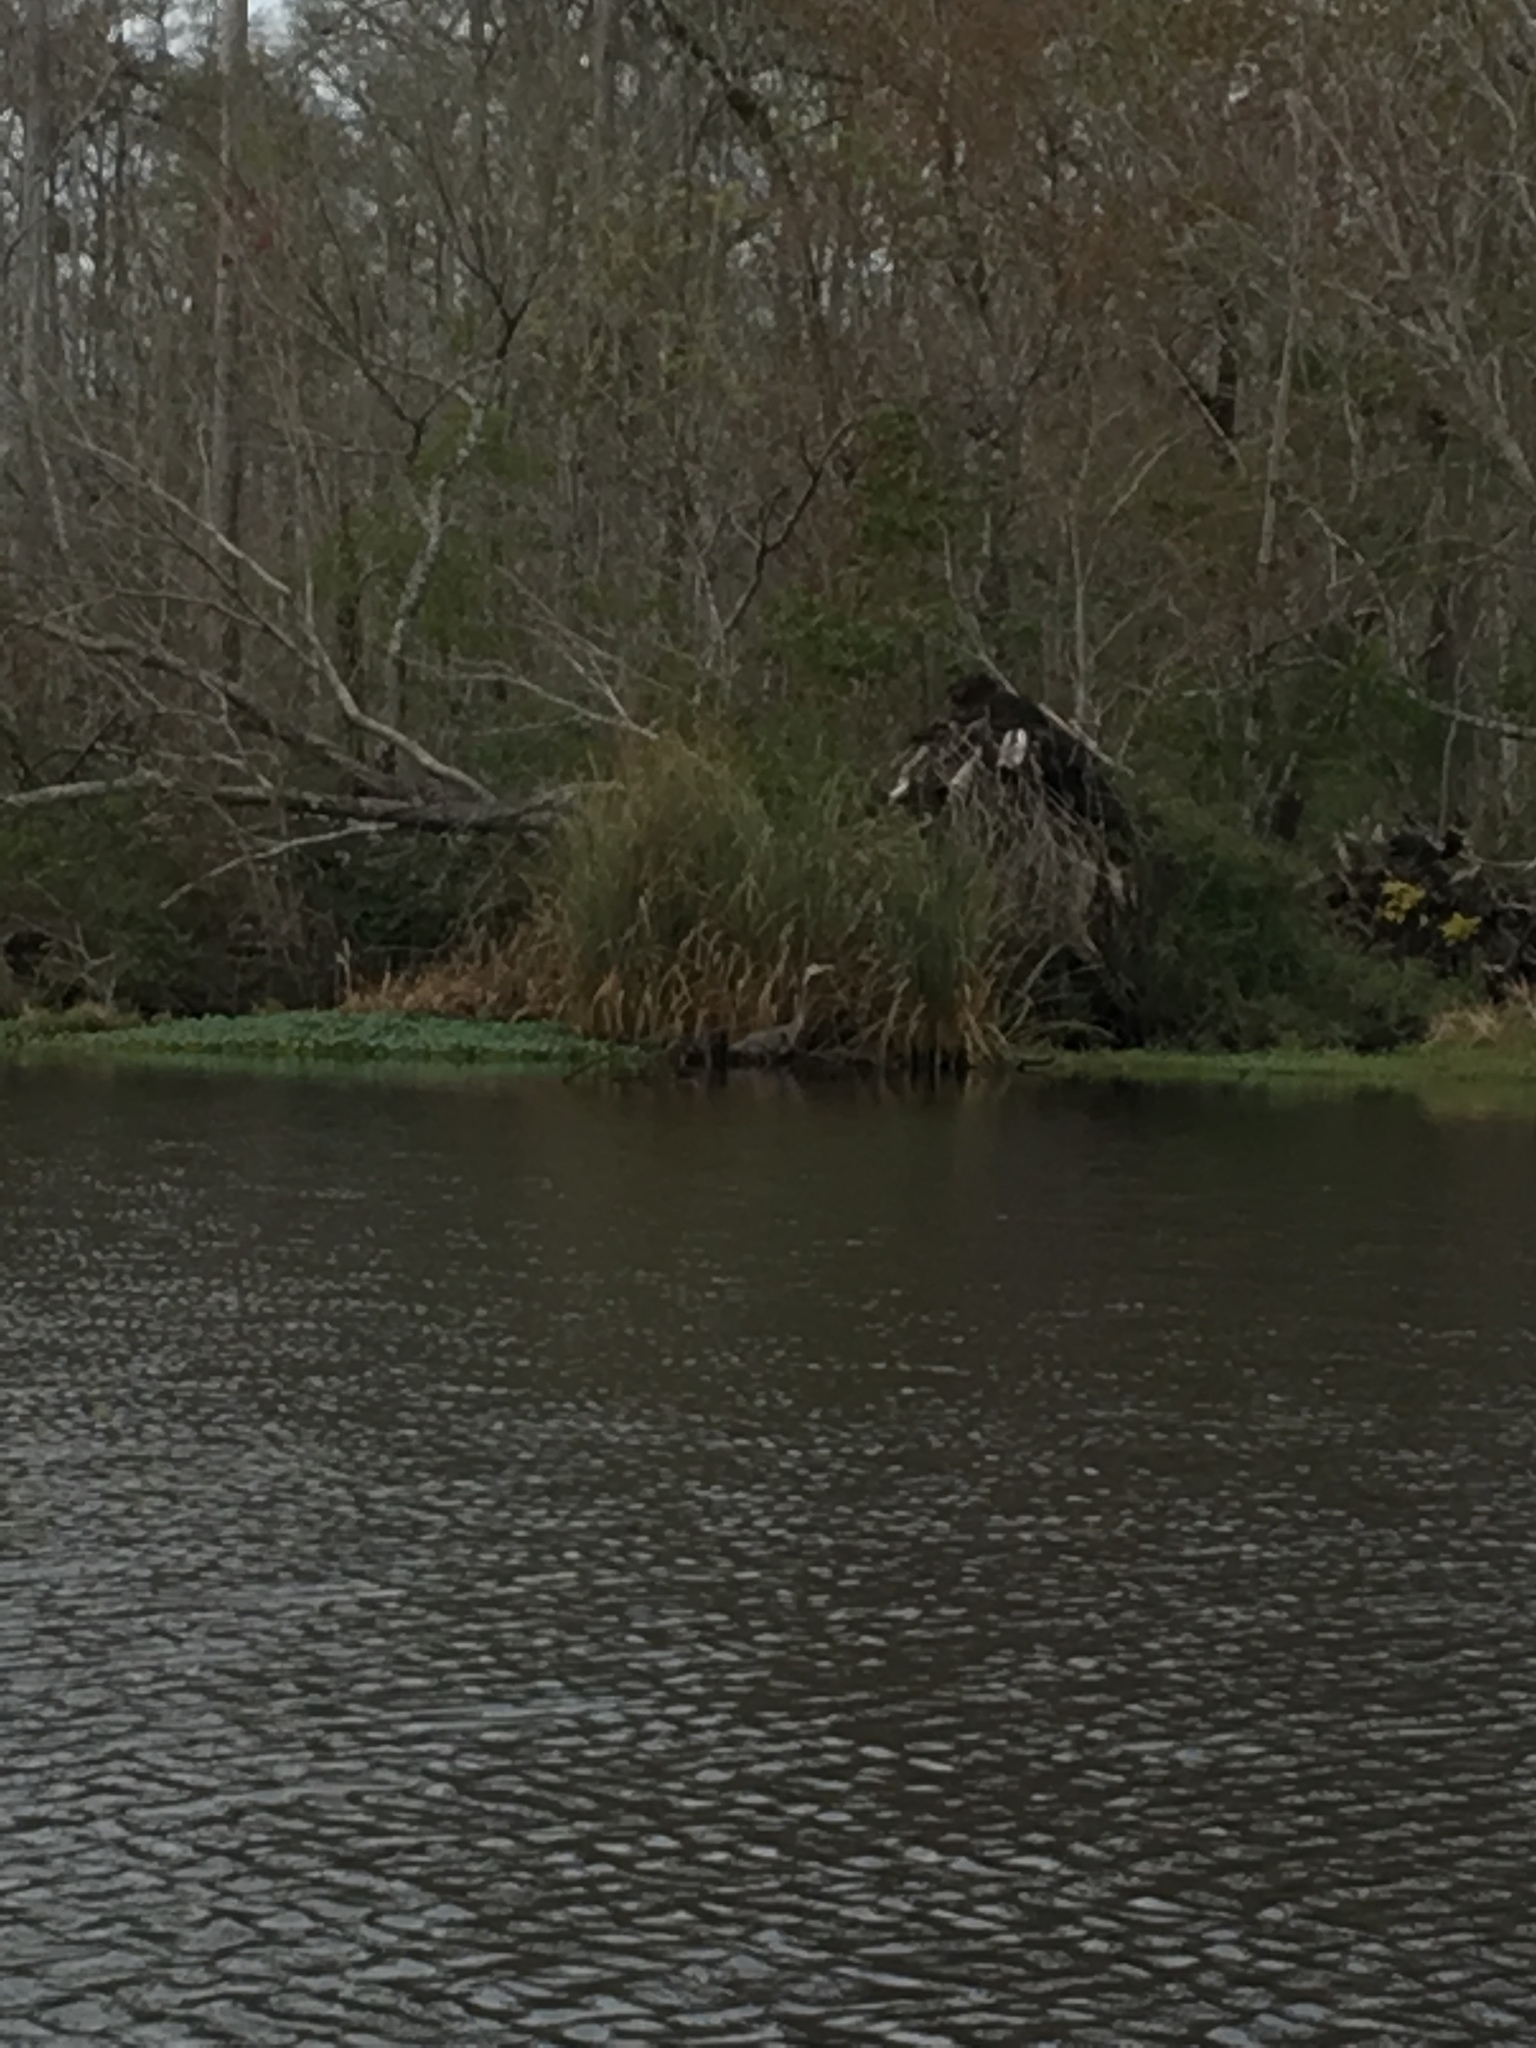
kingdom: Animalia
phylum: Chordata
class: Aves
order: Pelecaniformes
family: Ardeidae
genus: Ardea
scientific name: Ardea herodias
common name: Great blue heron
